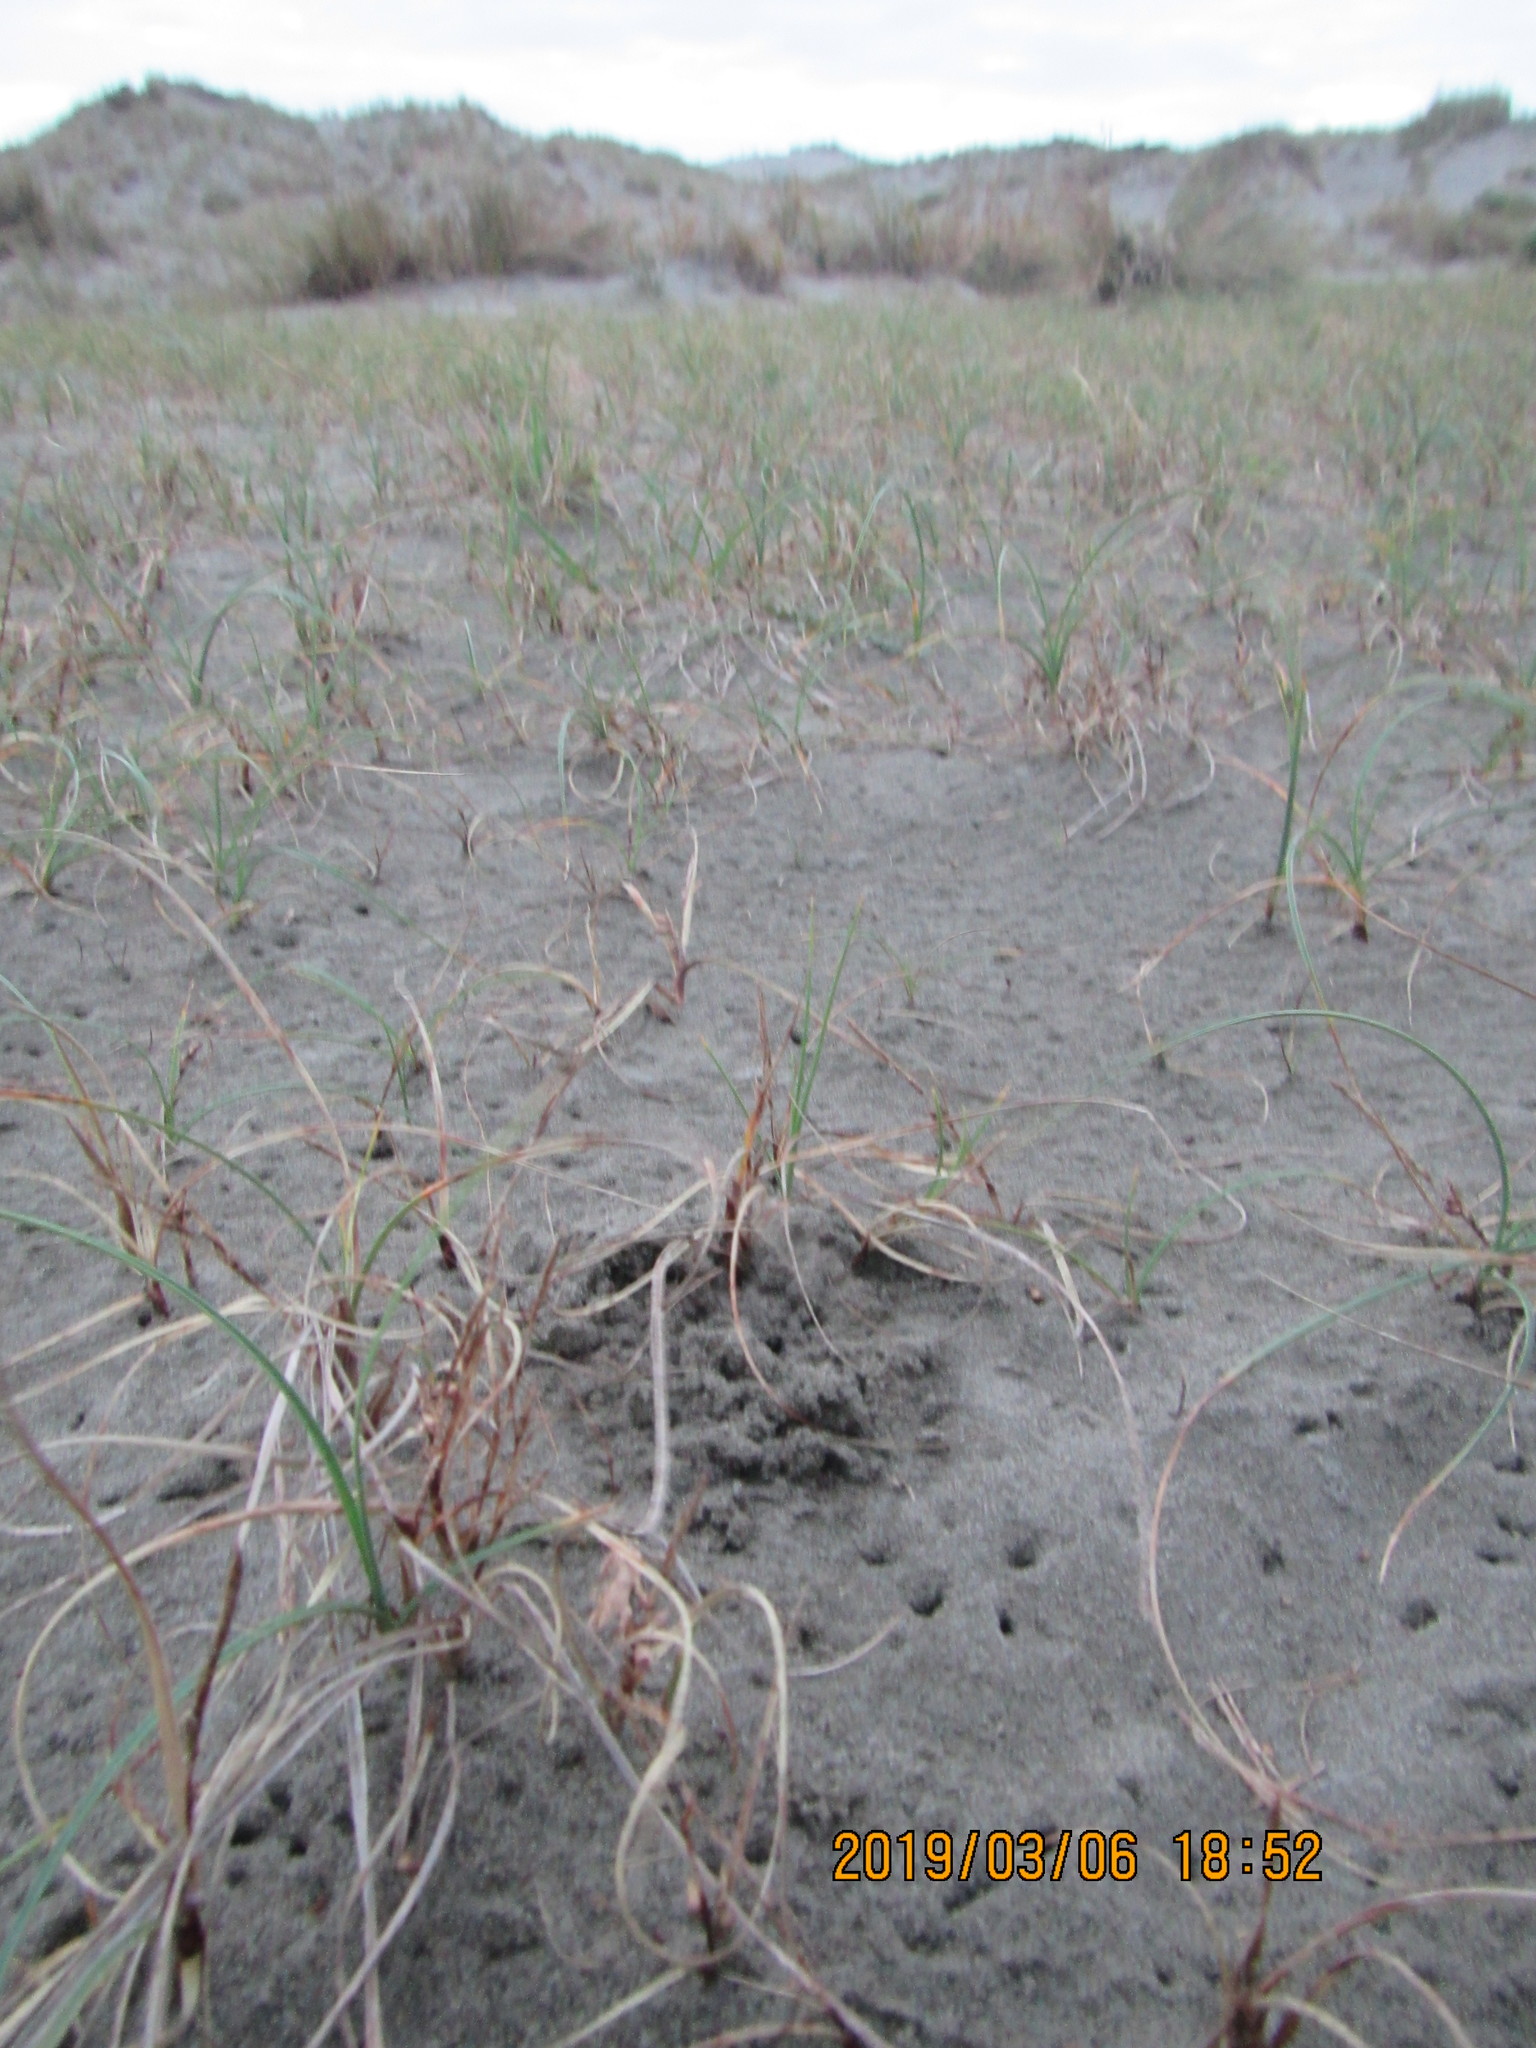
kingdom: Animalia
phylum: Arthropoda
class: Arachnida
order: Araneae
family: Lycosidae
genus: Anoteropsis
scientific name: Anoteropsis litoralis
